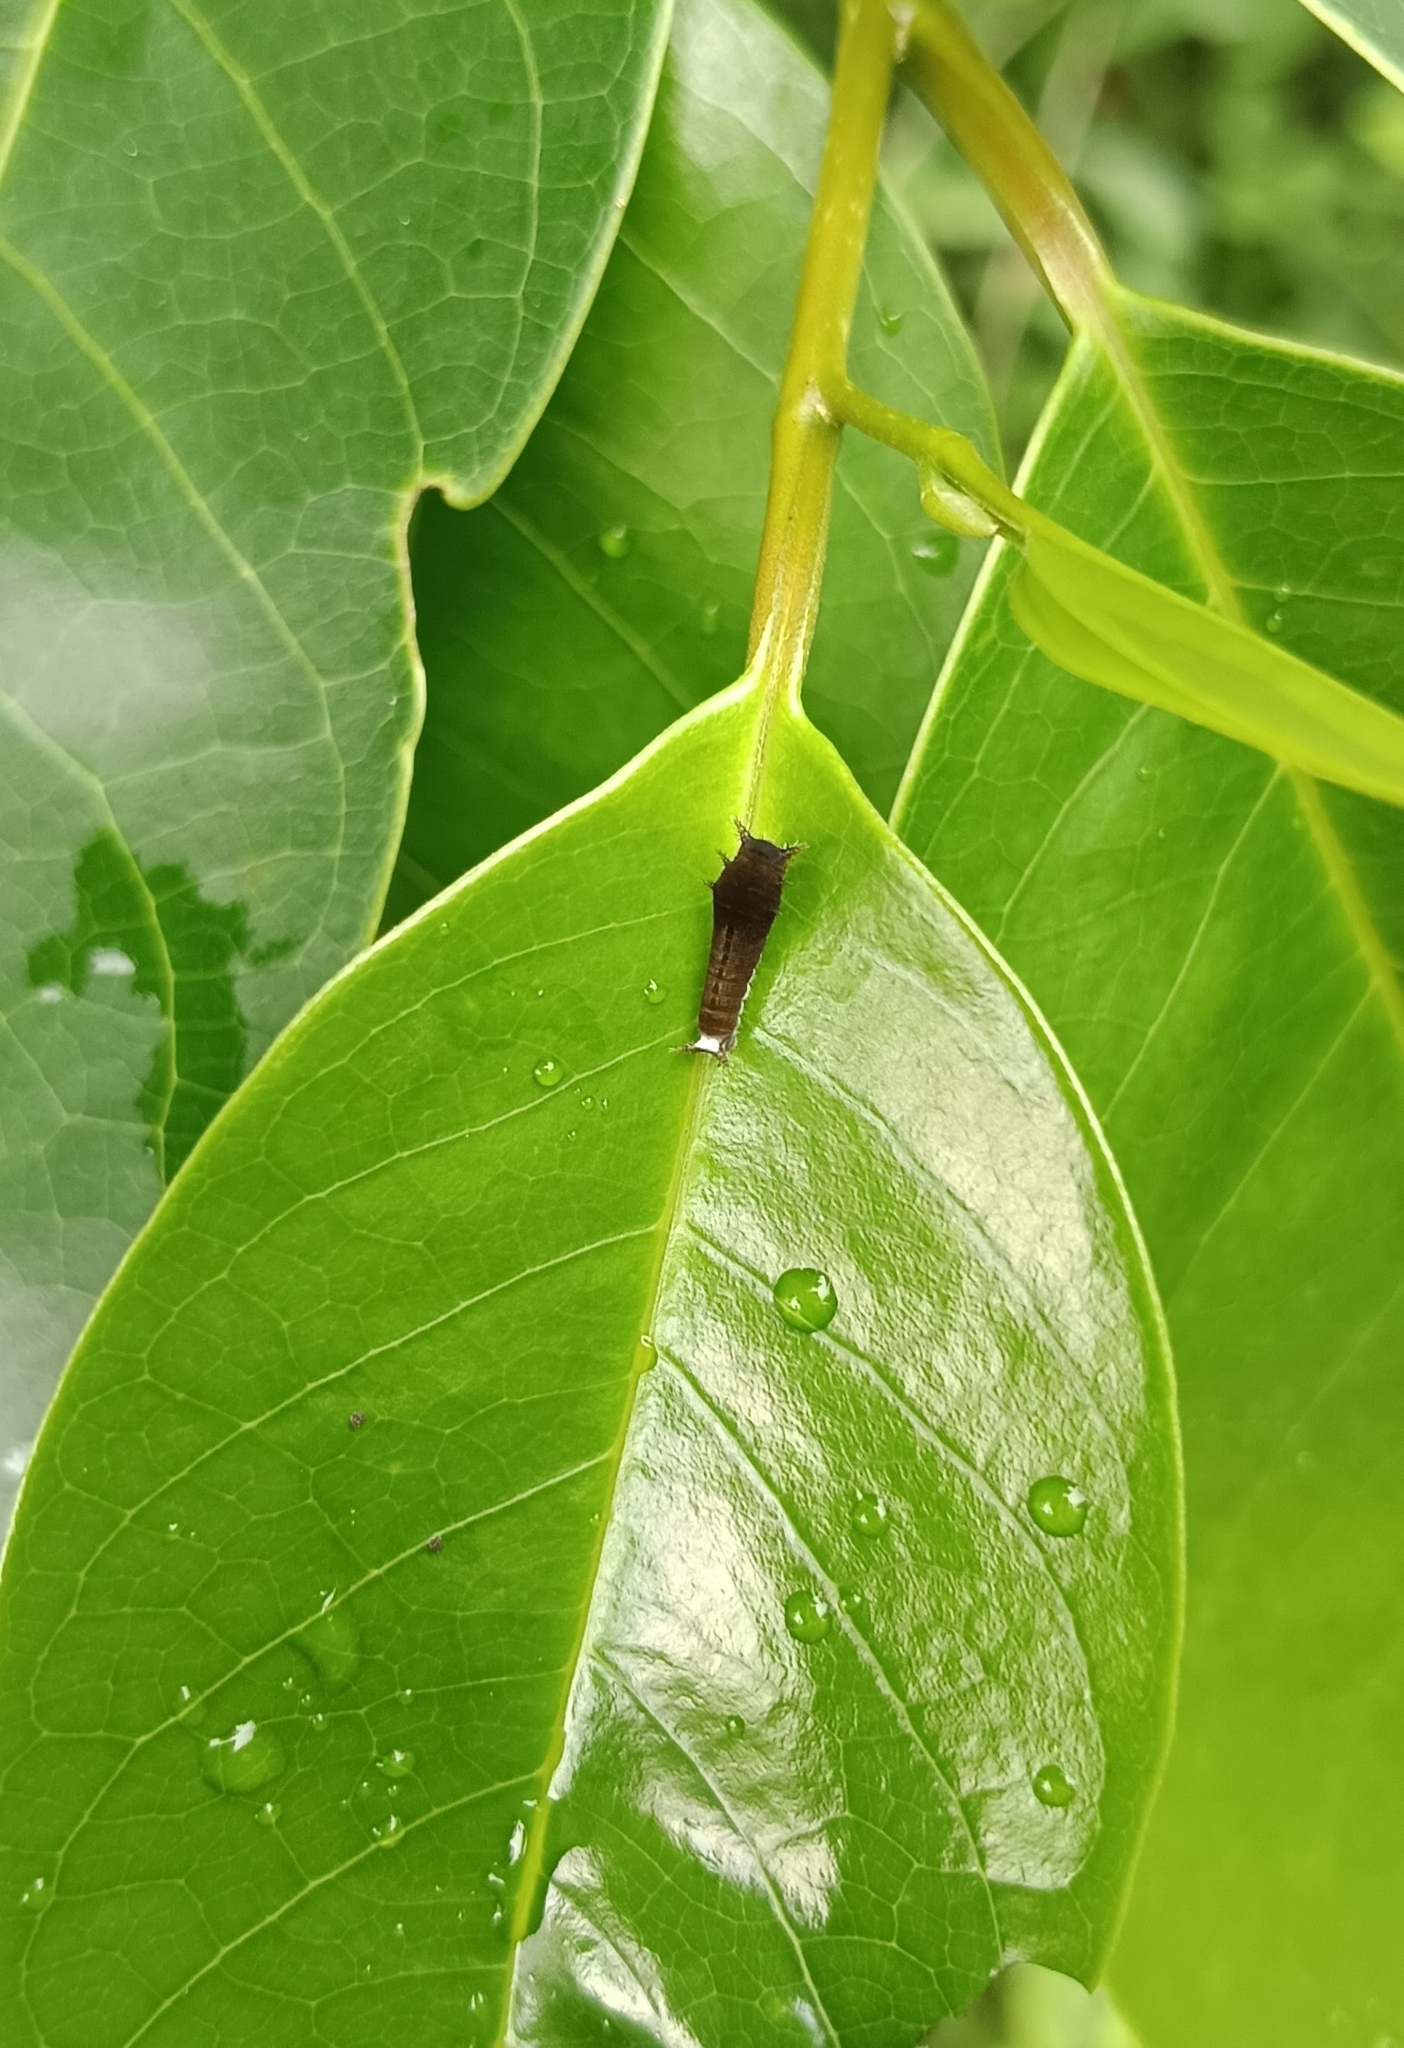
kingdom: Animalia
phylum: Arthropoda
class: Insecta
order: Lepidoptera
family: Papilionidae
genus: Graphium
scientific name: Graphium doson
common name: Common jay
